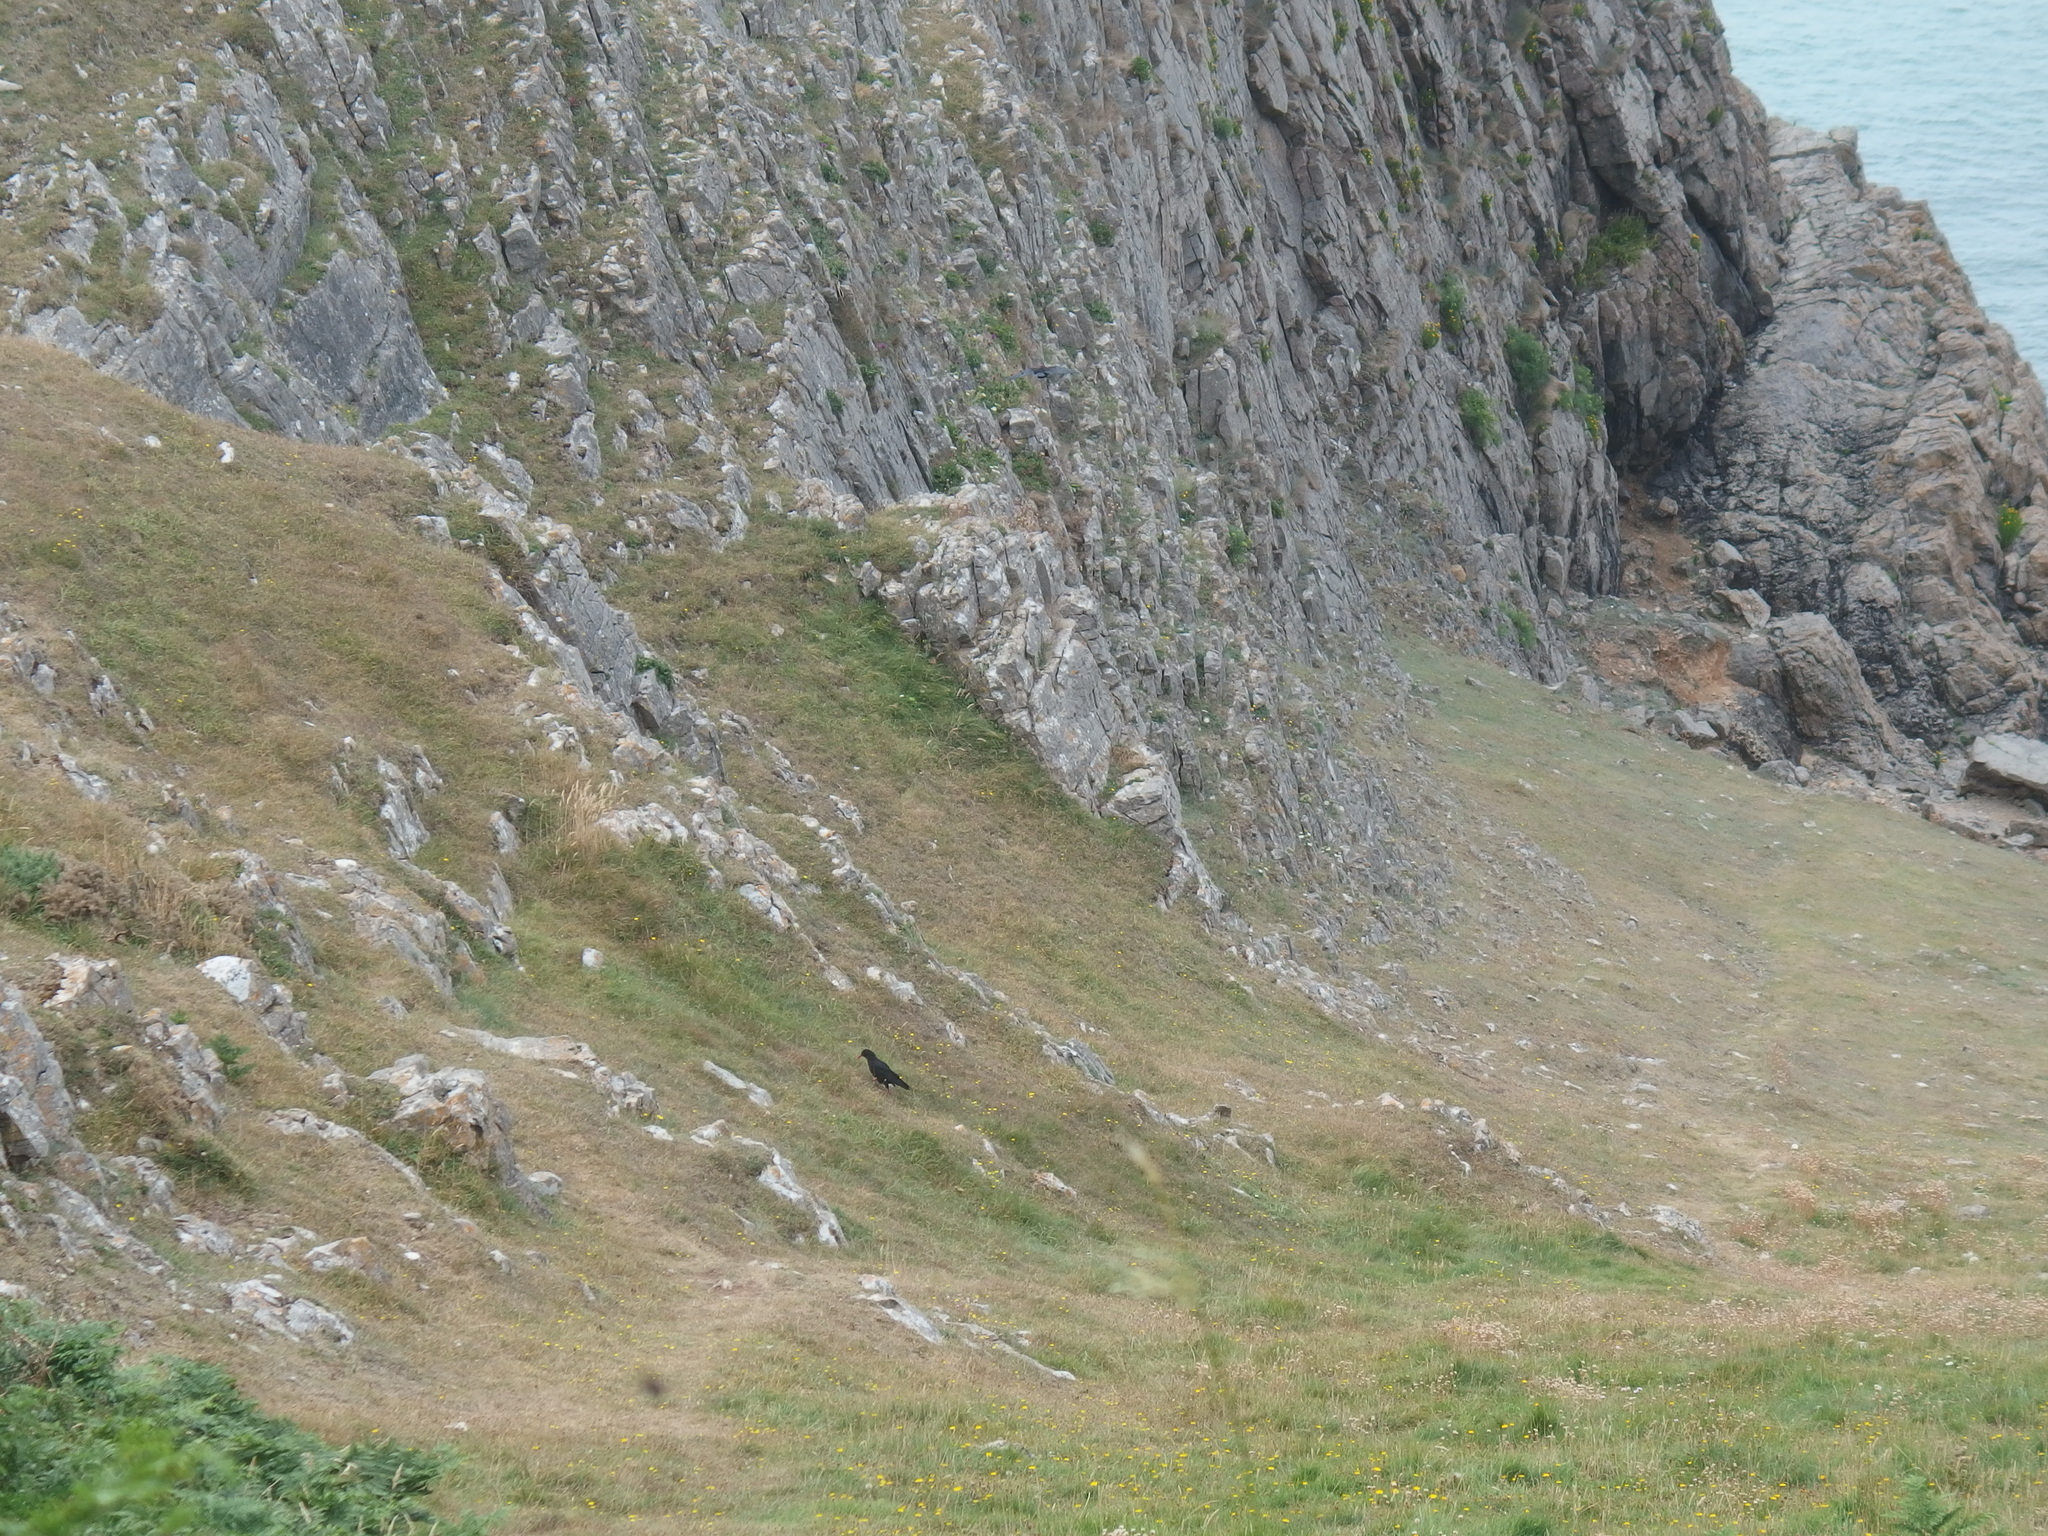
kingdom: Animalia
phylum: Chordata
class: Aves
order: Passeriformes
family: Corvidae
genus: Pyrrhocorax
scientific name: Pyrrhocorax pyrrhocorax
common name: Red-billed chough
